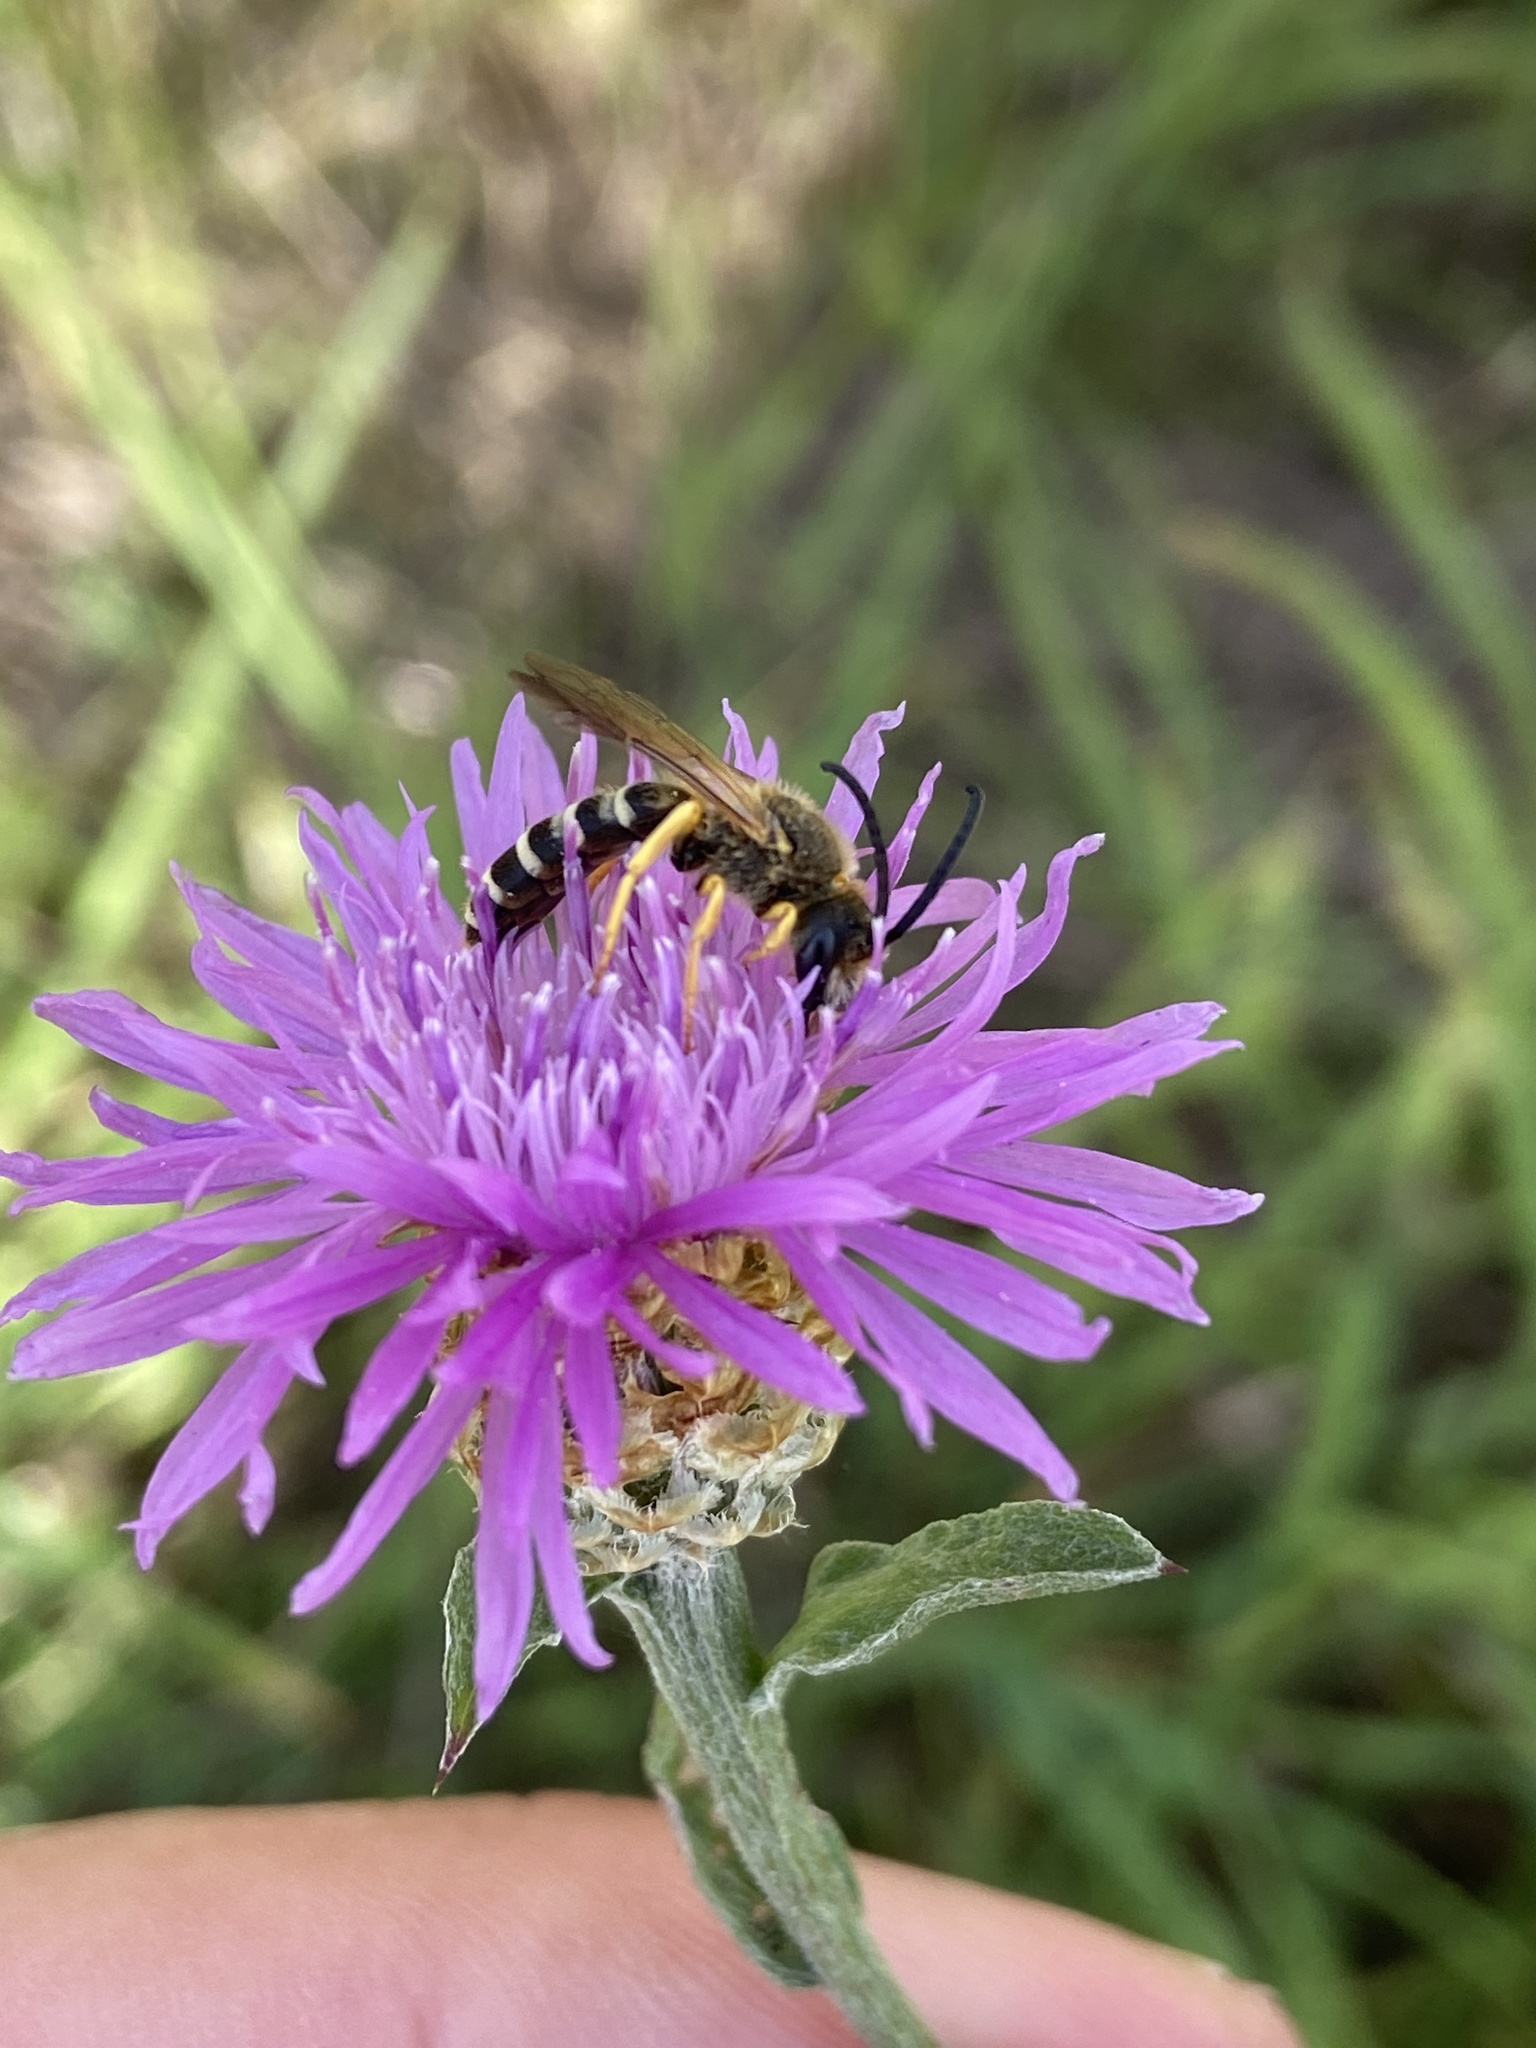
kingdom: Animalia
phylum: Arthropoda
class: Insecta
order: Hymenoptera
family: Halictidae
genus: Halictus
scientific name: Halictus scabiosae
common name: Great banded furrow bee
